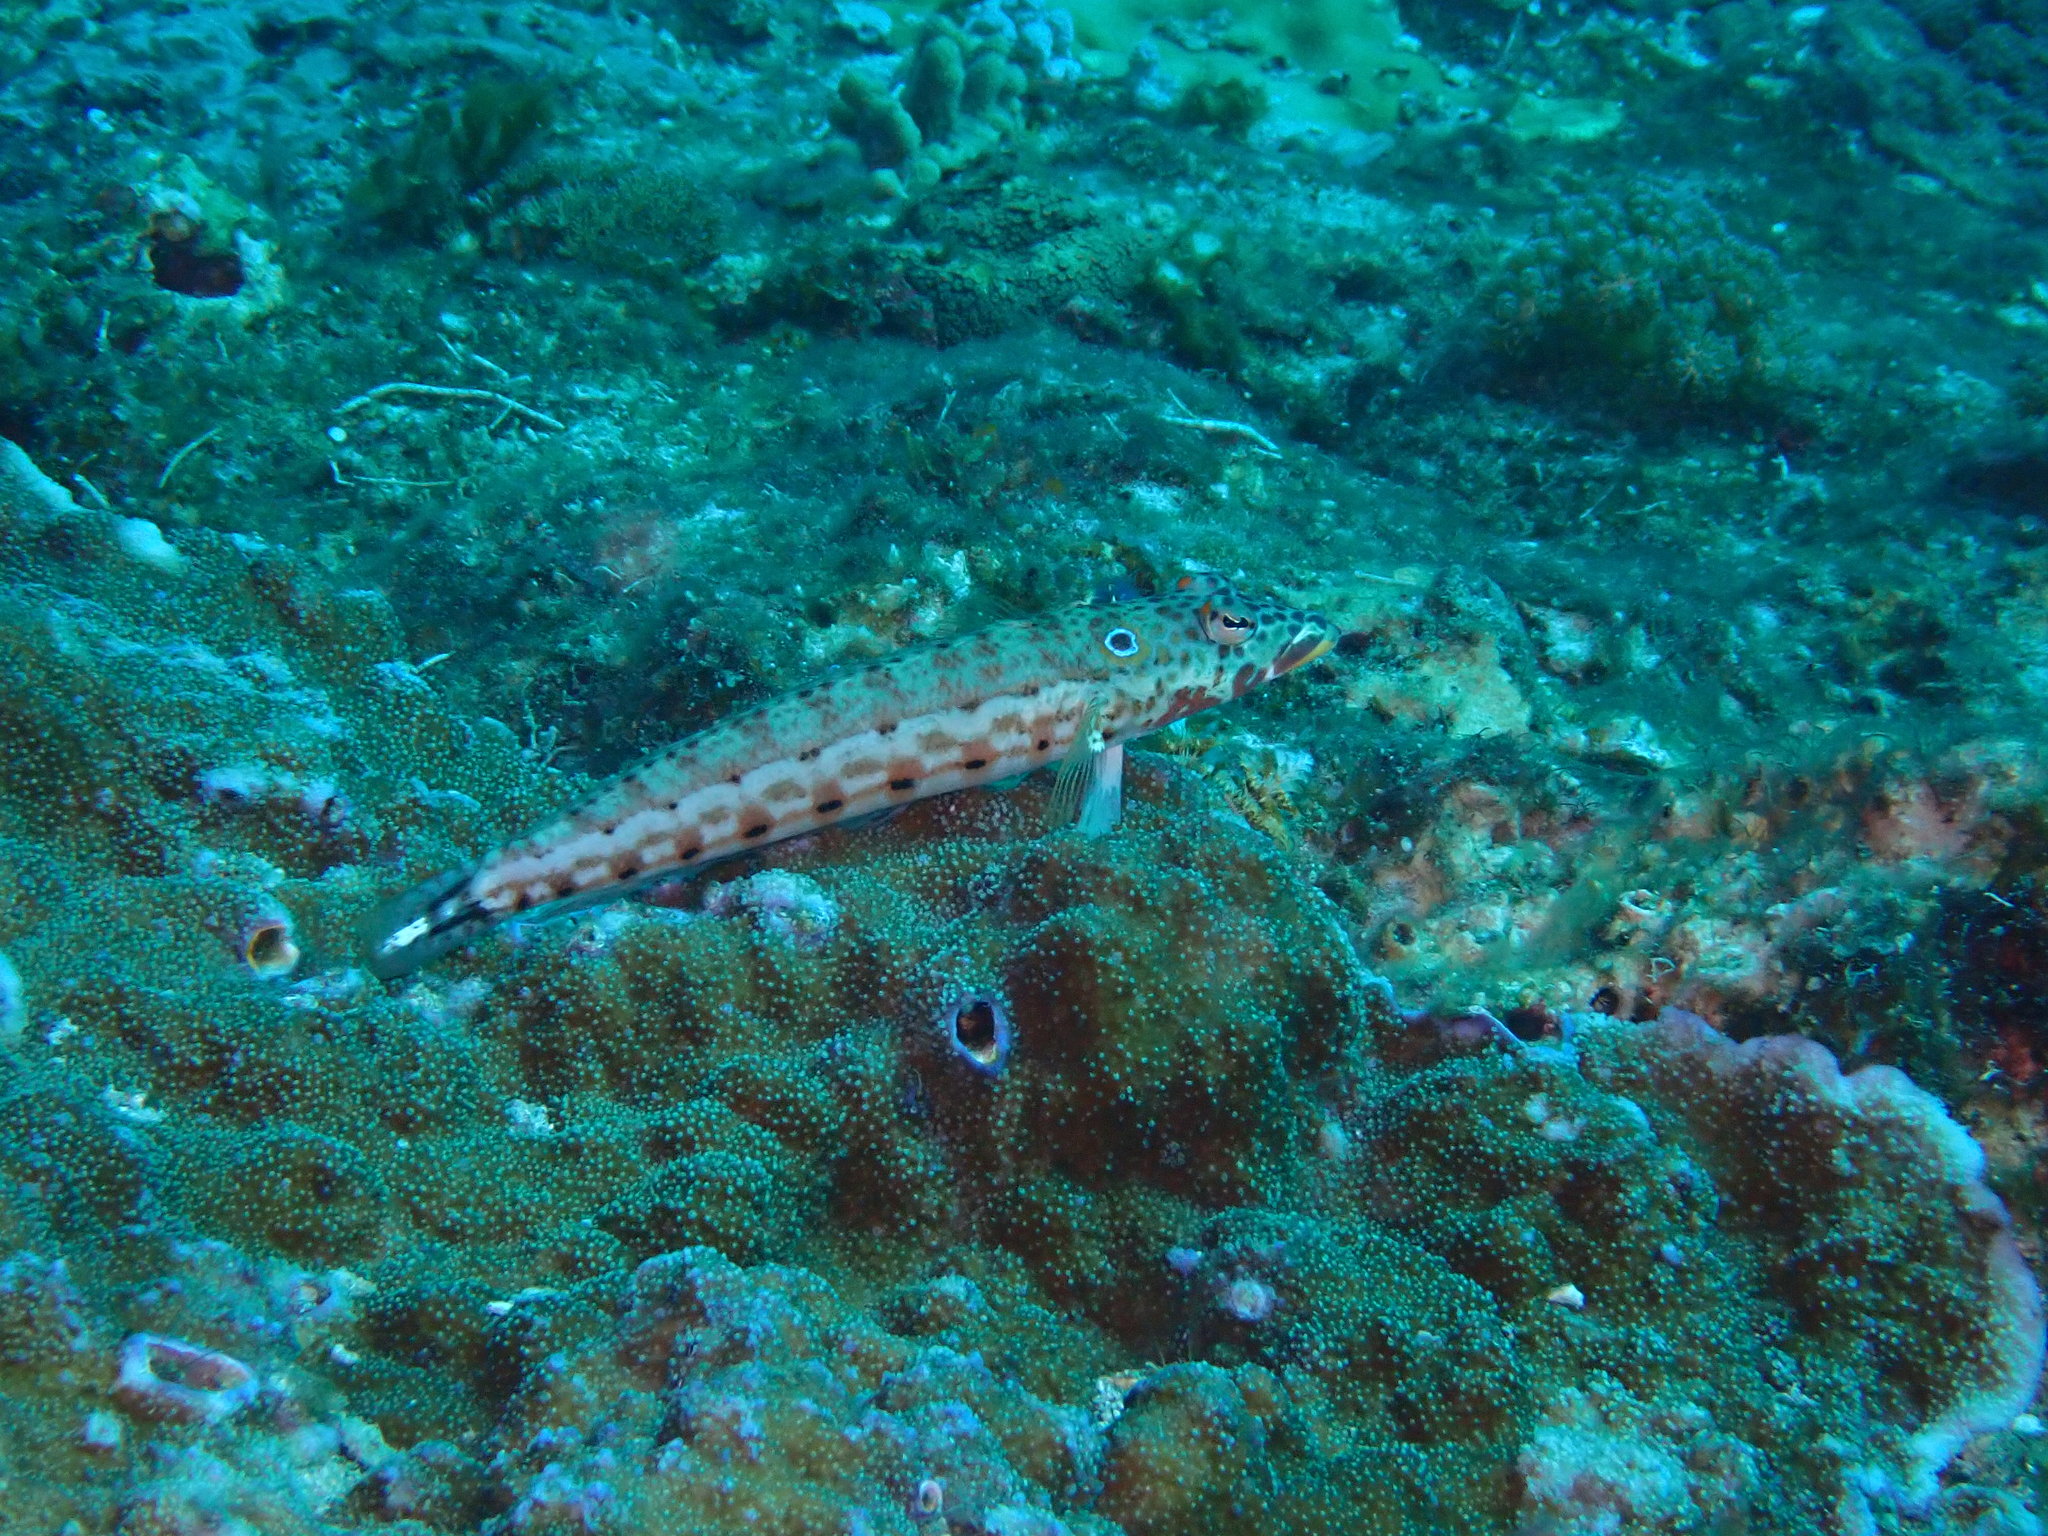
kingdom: Animalia
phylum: Chordata
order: Perciformes
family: Pinguipedidae
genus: Parapercis
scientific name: Parapercis clathrata
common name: Latticed sandperch
